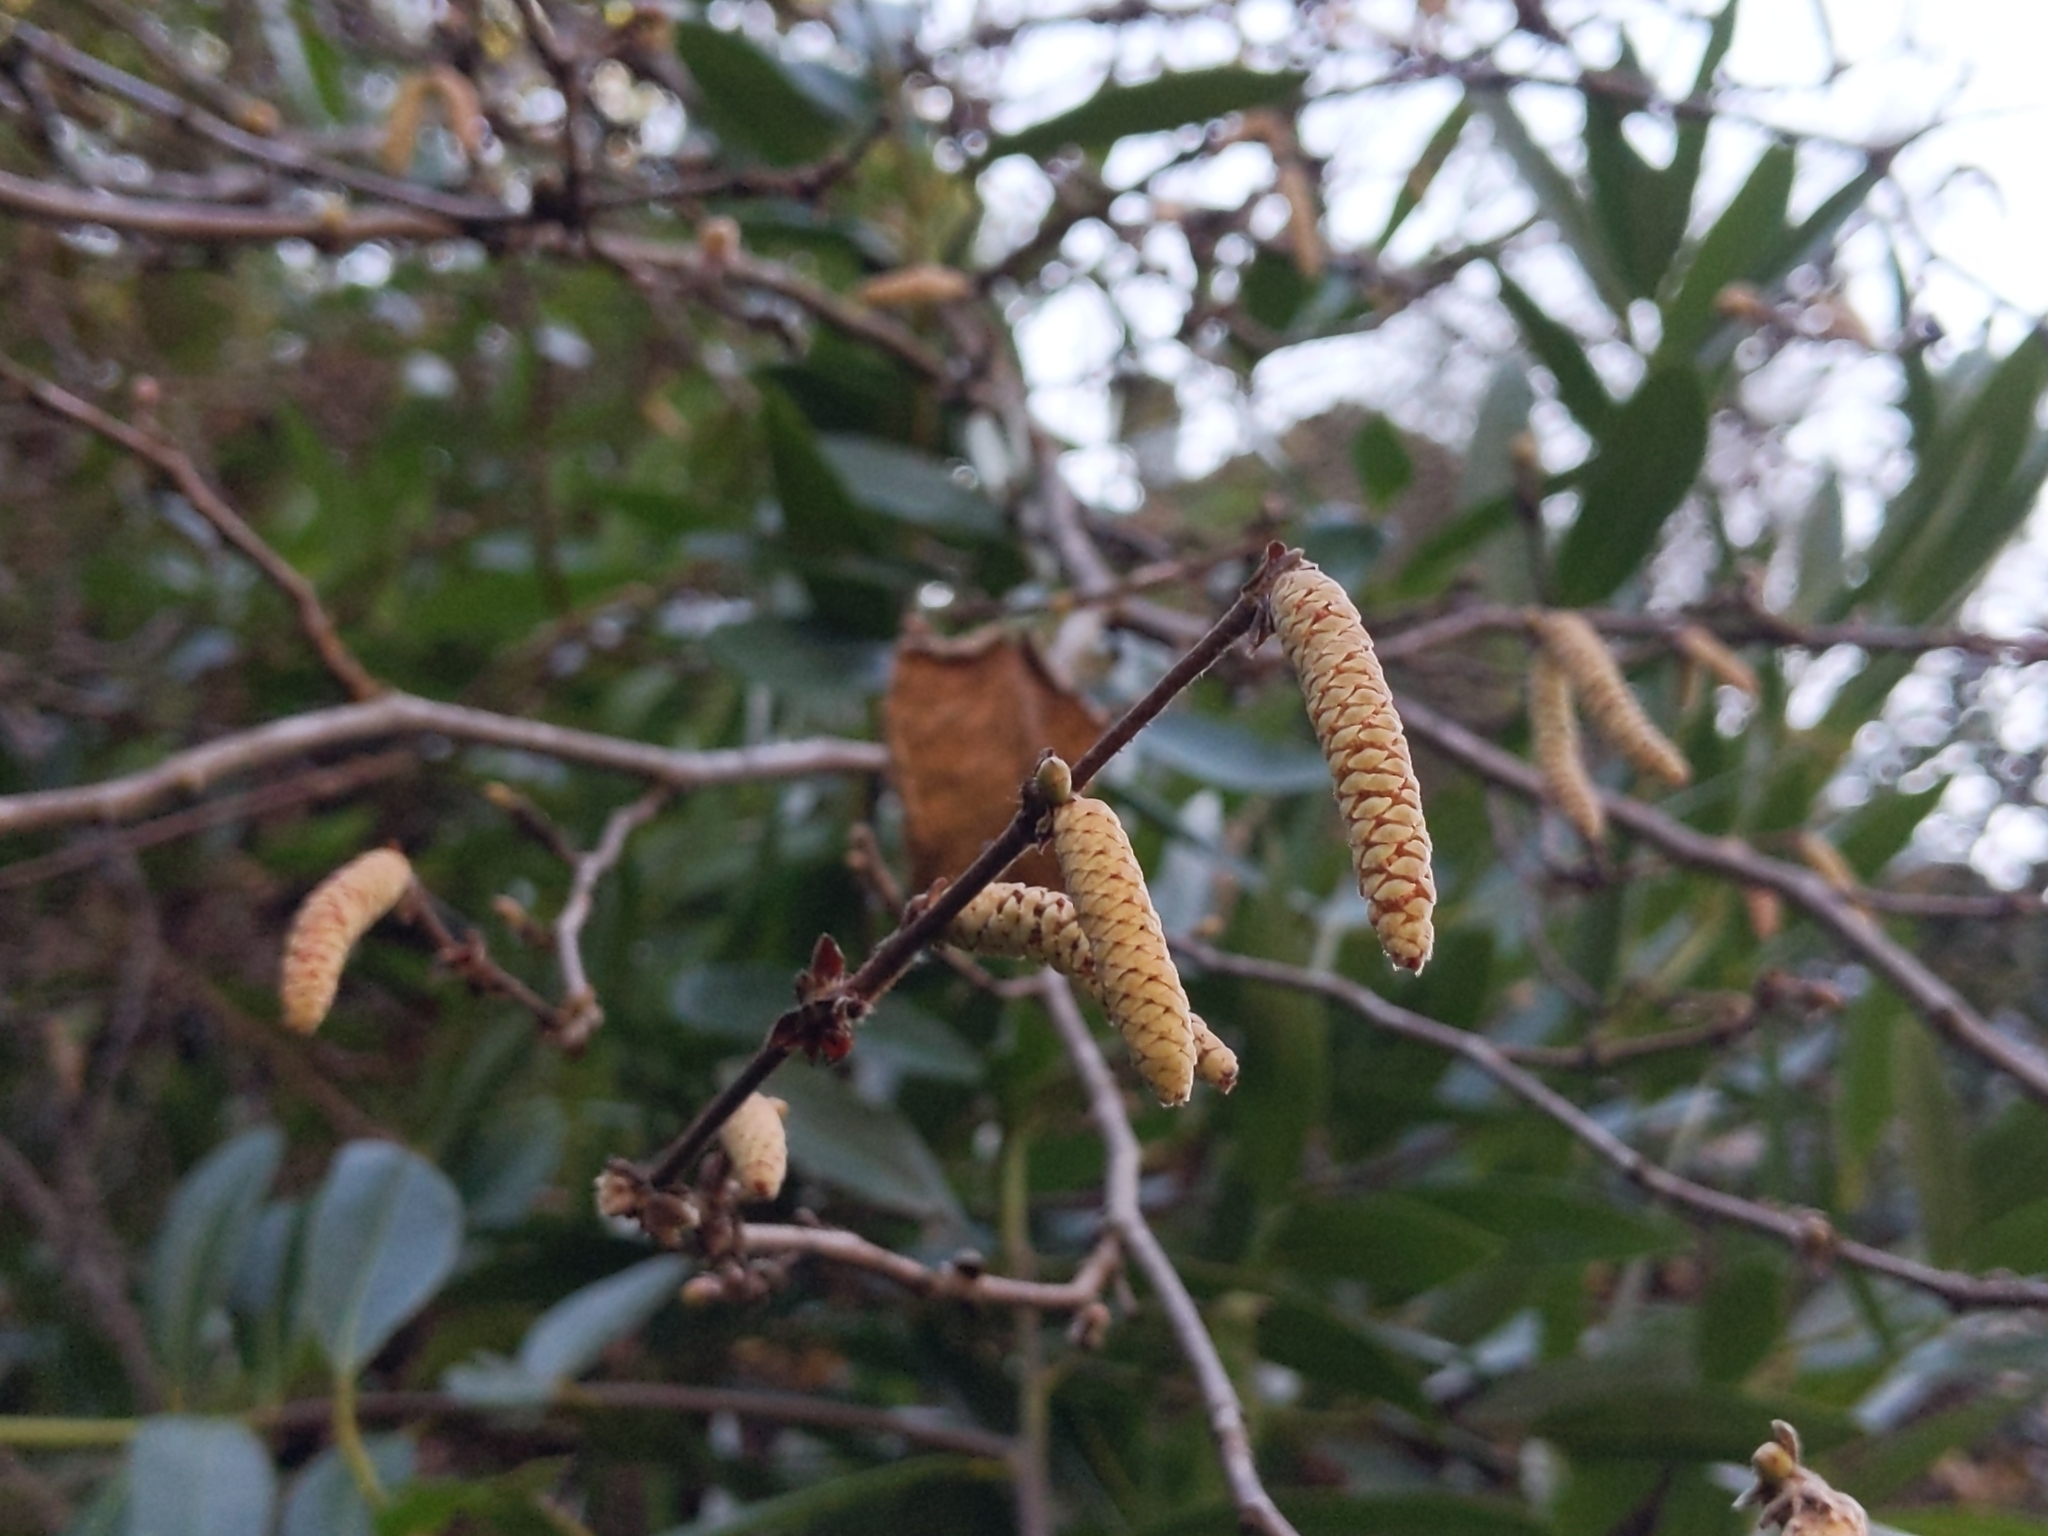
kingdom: Plantae
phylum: Tracheophyta
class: Magnoliopsida
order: Fagales
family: Betulaceae
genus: Corylus
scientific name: Corylus cornuta
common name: Beaked hazel
